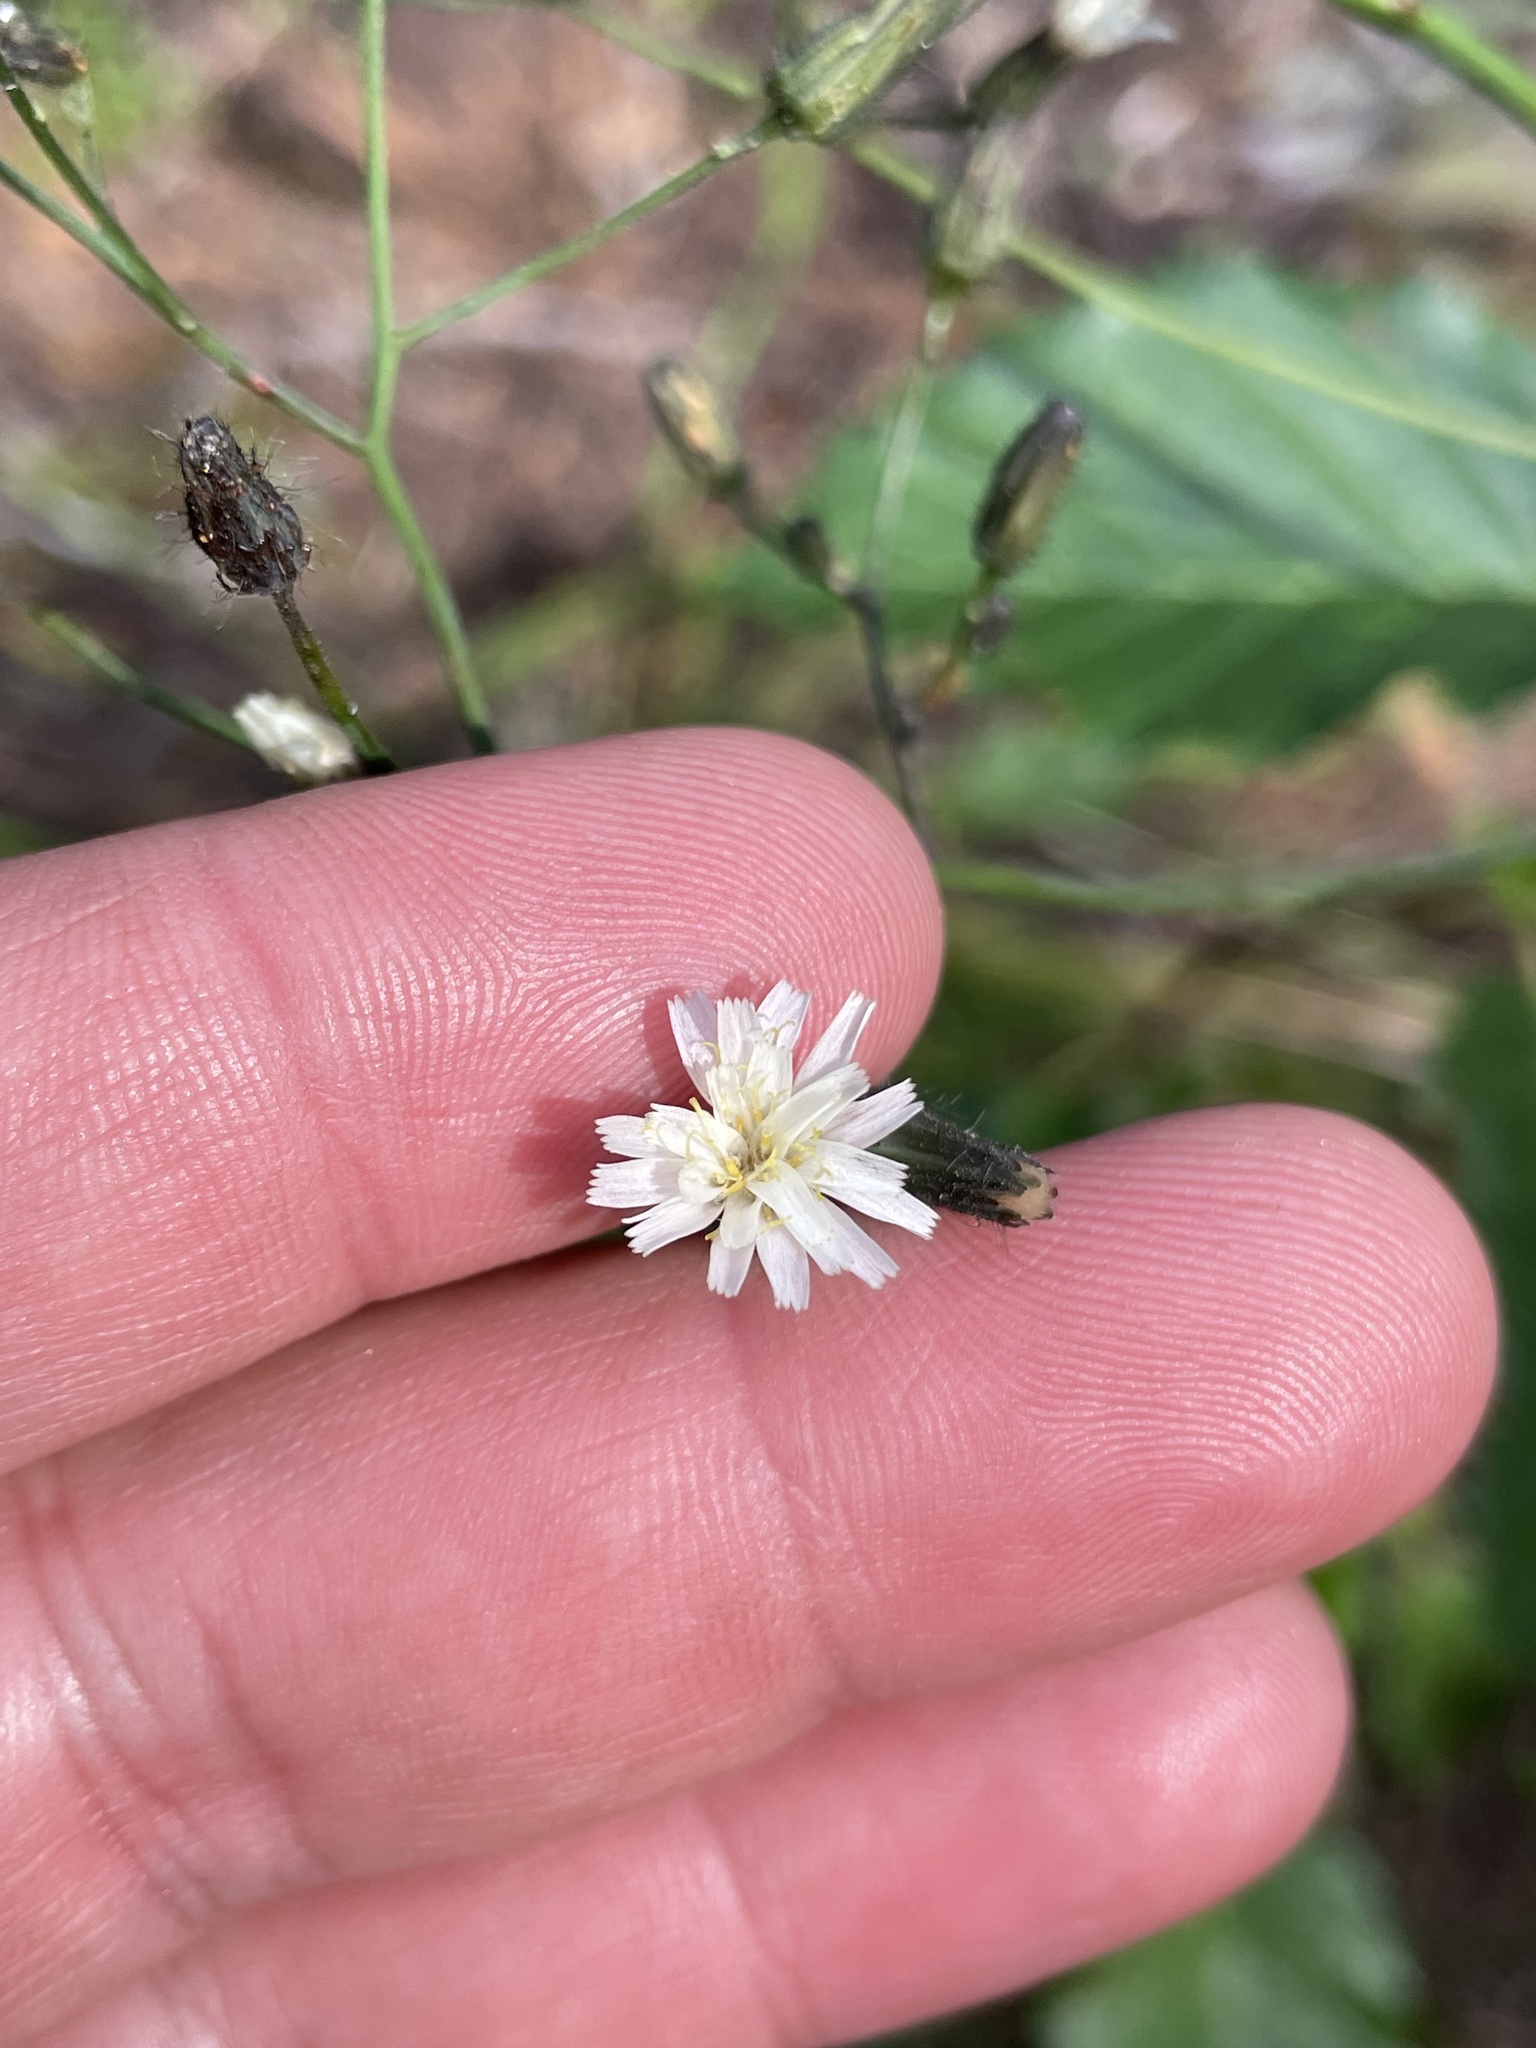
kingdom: Plantae
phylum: Tracheophyta
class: Magnoliopsida
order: Asterales
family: Asteraceae
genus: Hieracium
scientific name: Hieracium albiflorum
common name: White hawkweed
